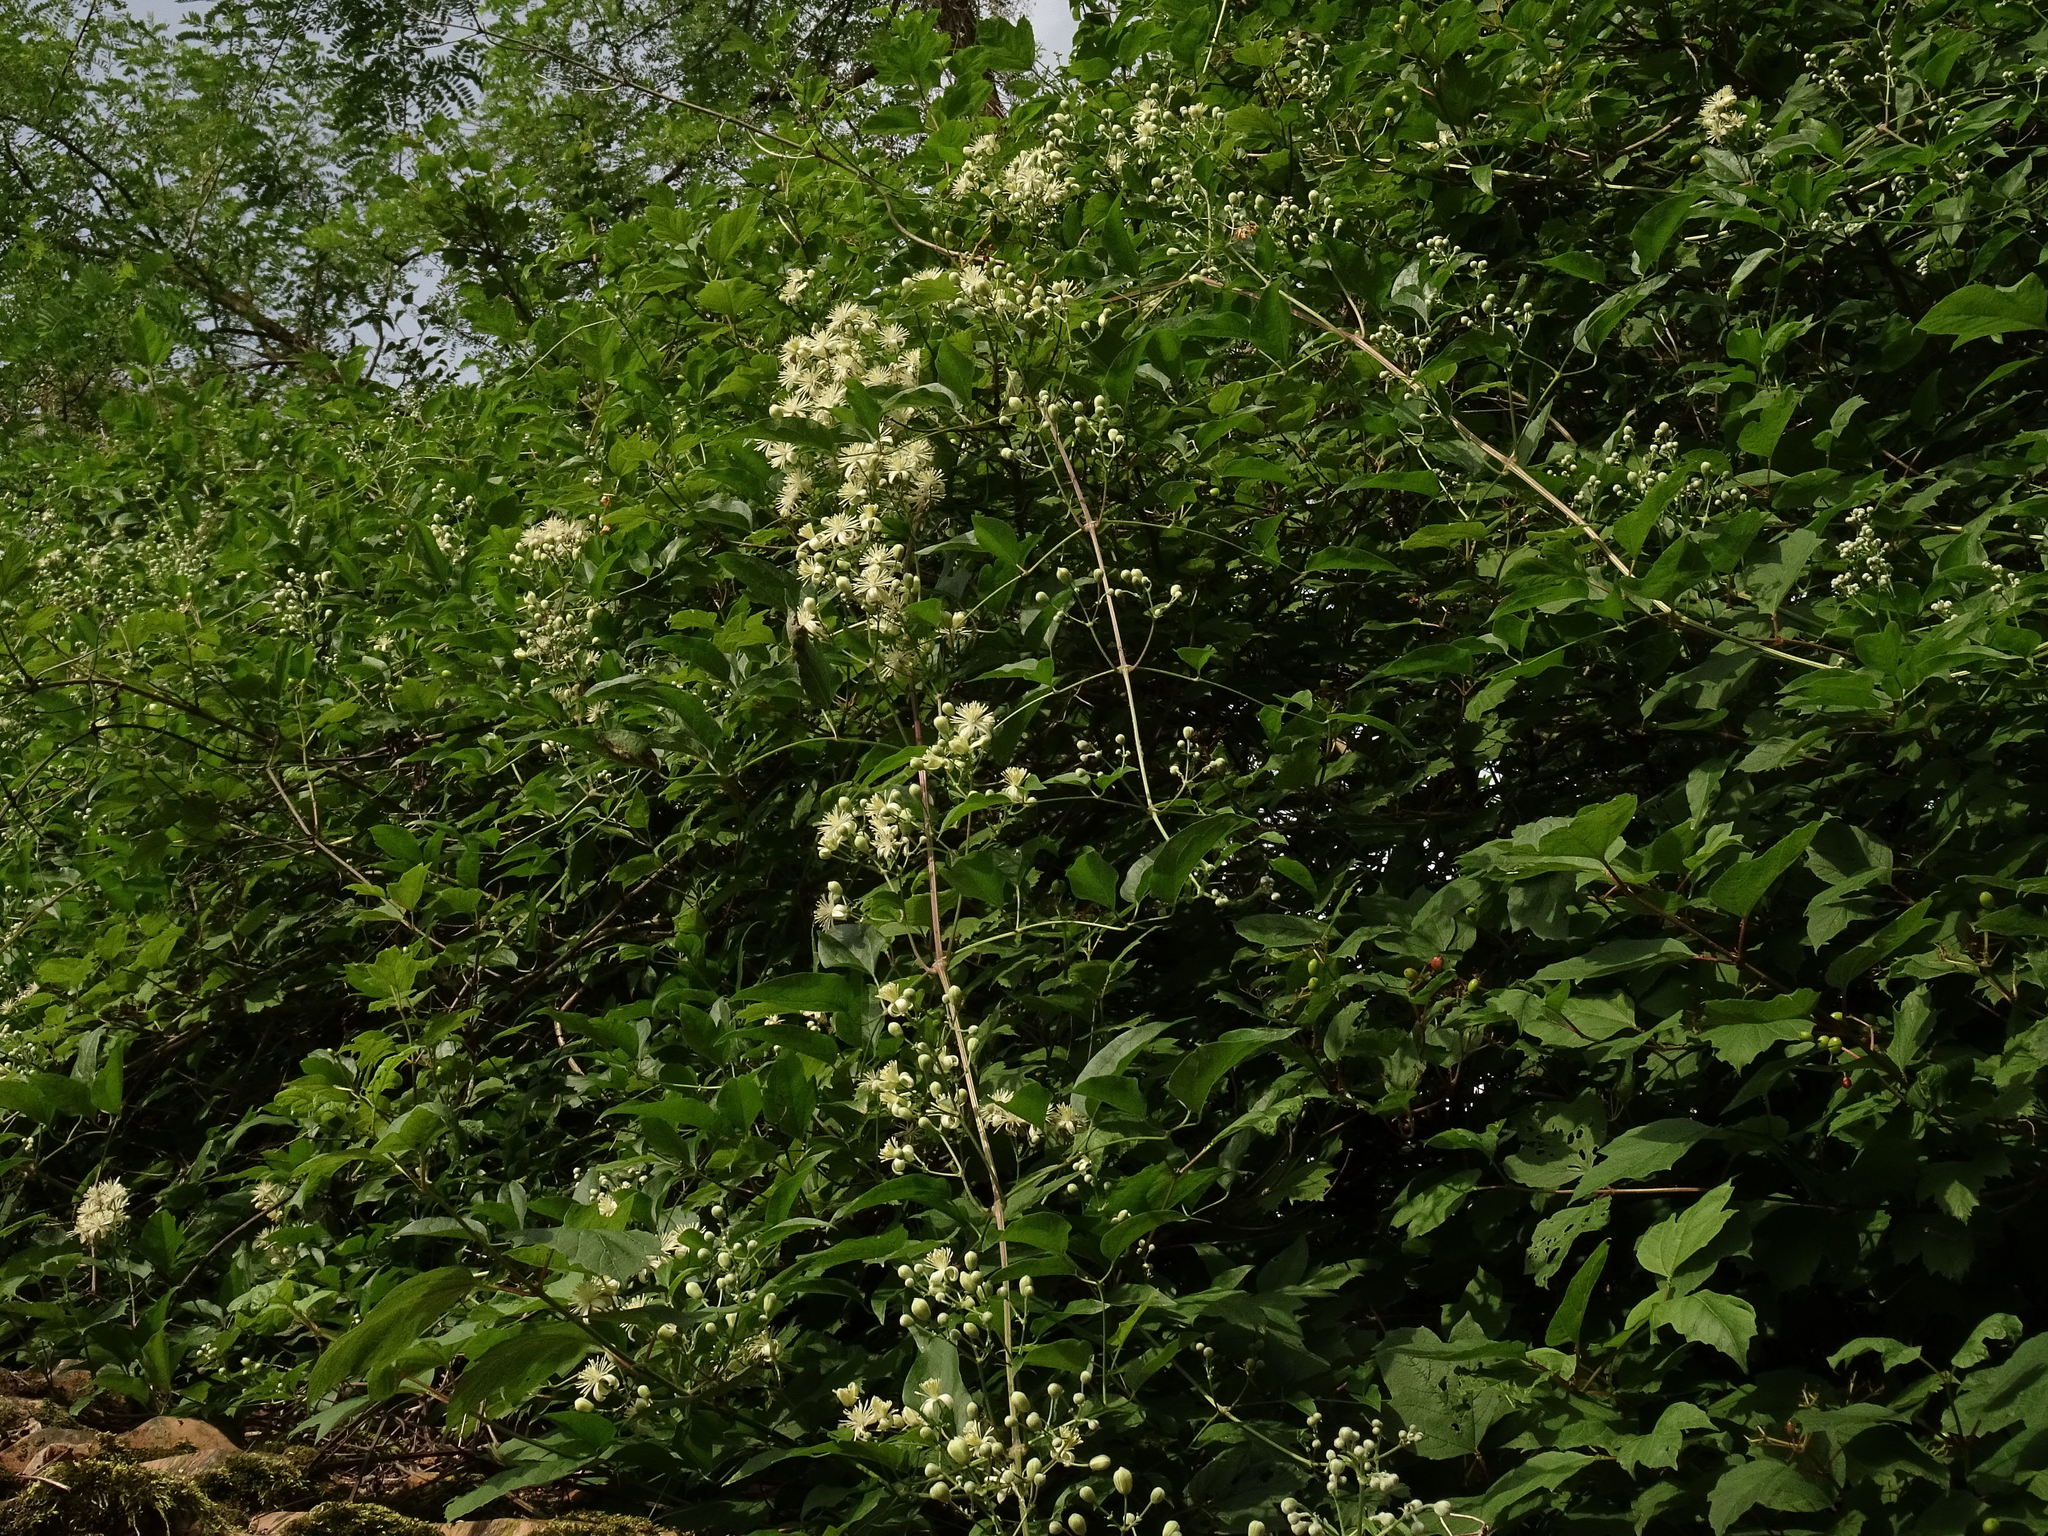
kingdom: Plantae
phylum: Tracheophyta
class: Magnoliopsida
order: Ranunculales
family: Ranunculaceae
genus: Clematis
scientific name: Clematis vitalba
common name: Evergreen clematis
